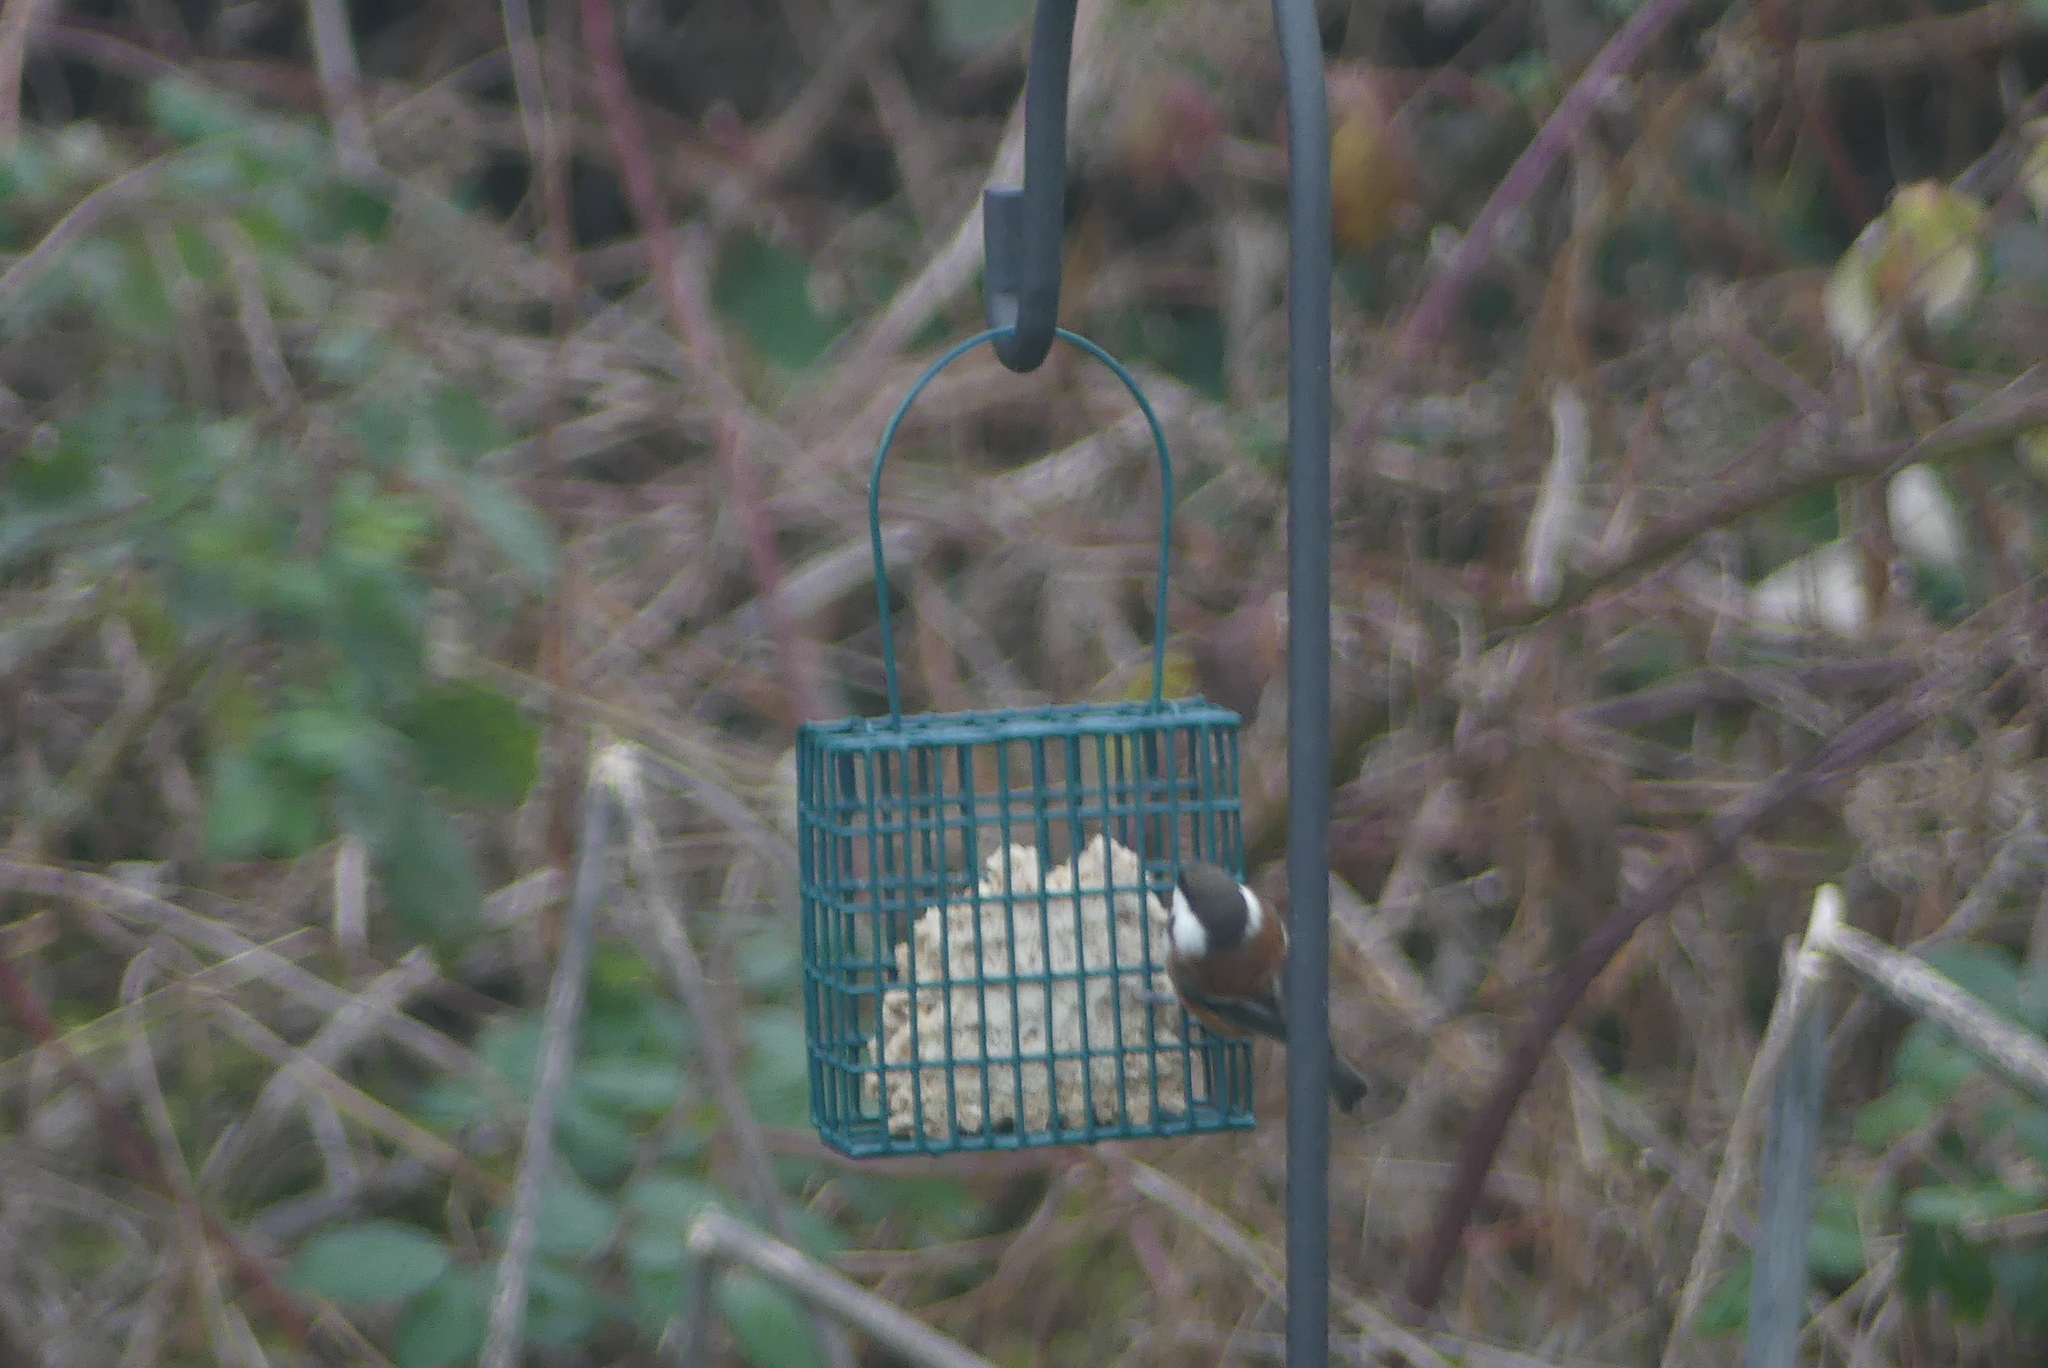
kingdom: Animalia
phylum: Chordata
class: Aves
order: Passeriformes
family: Paridae
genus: Poecile
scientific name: Poecile rufescens
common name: Chestnut-backed chickadee
